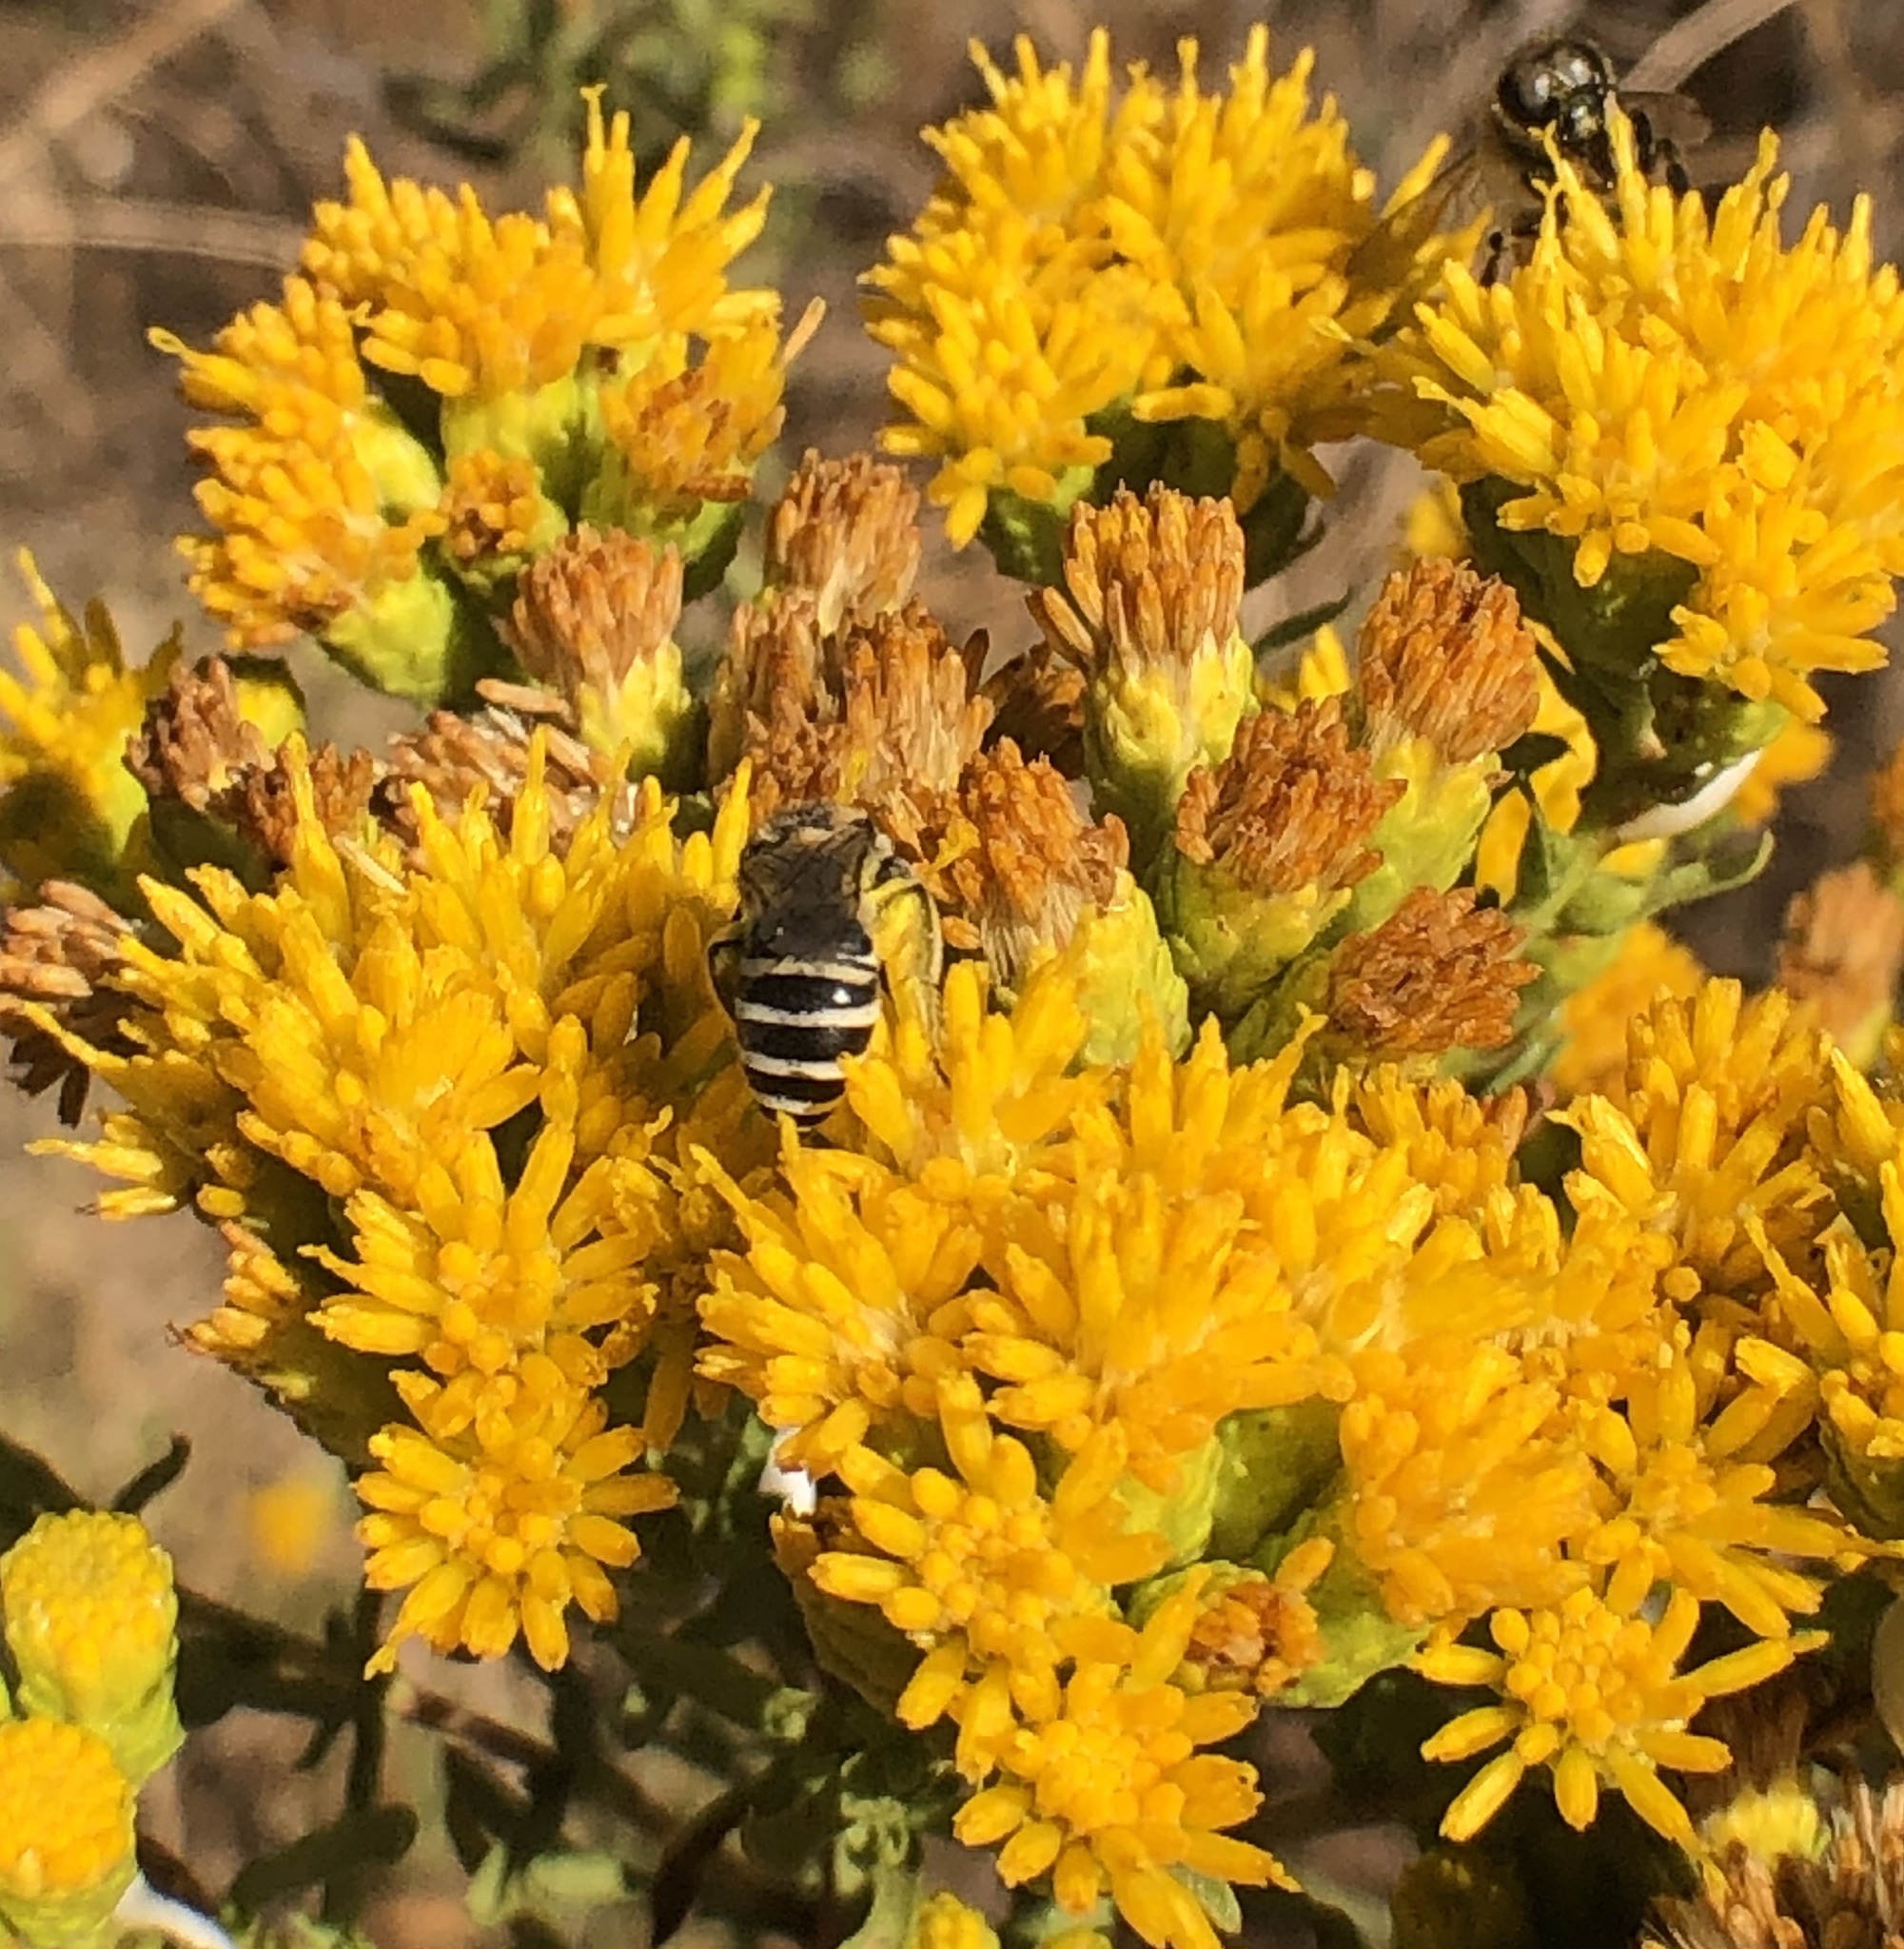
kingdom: Animalia
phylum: Arthropoda
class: Insecta
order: Hymenoptera
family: Colletidae
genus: Colletes
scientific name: Colletes
